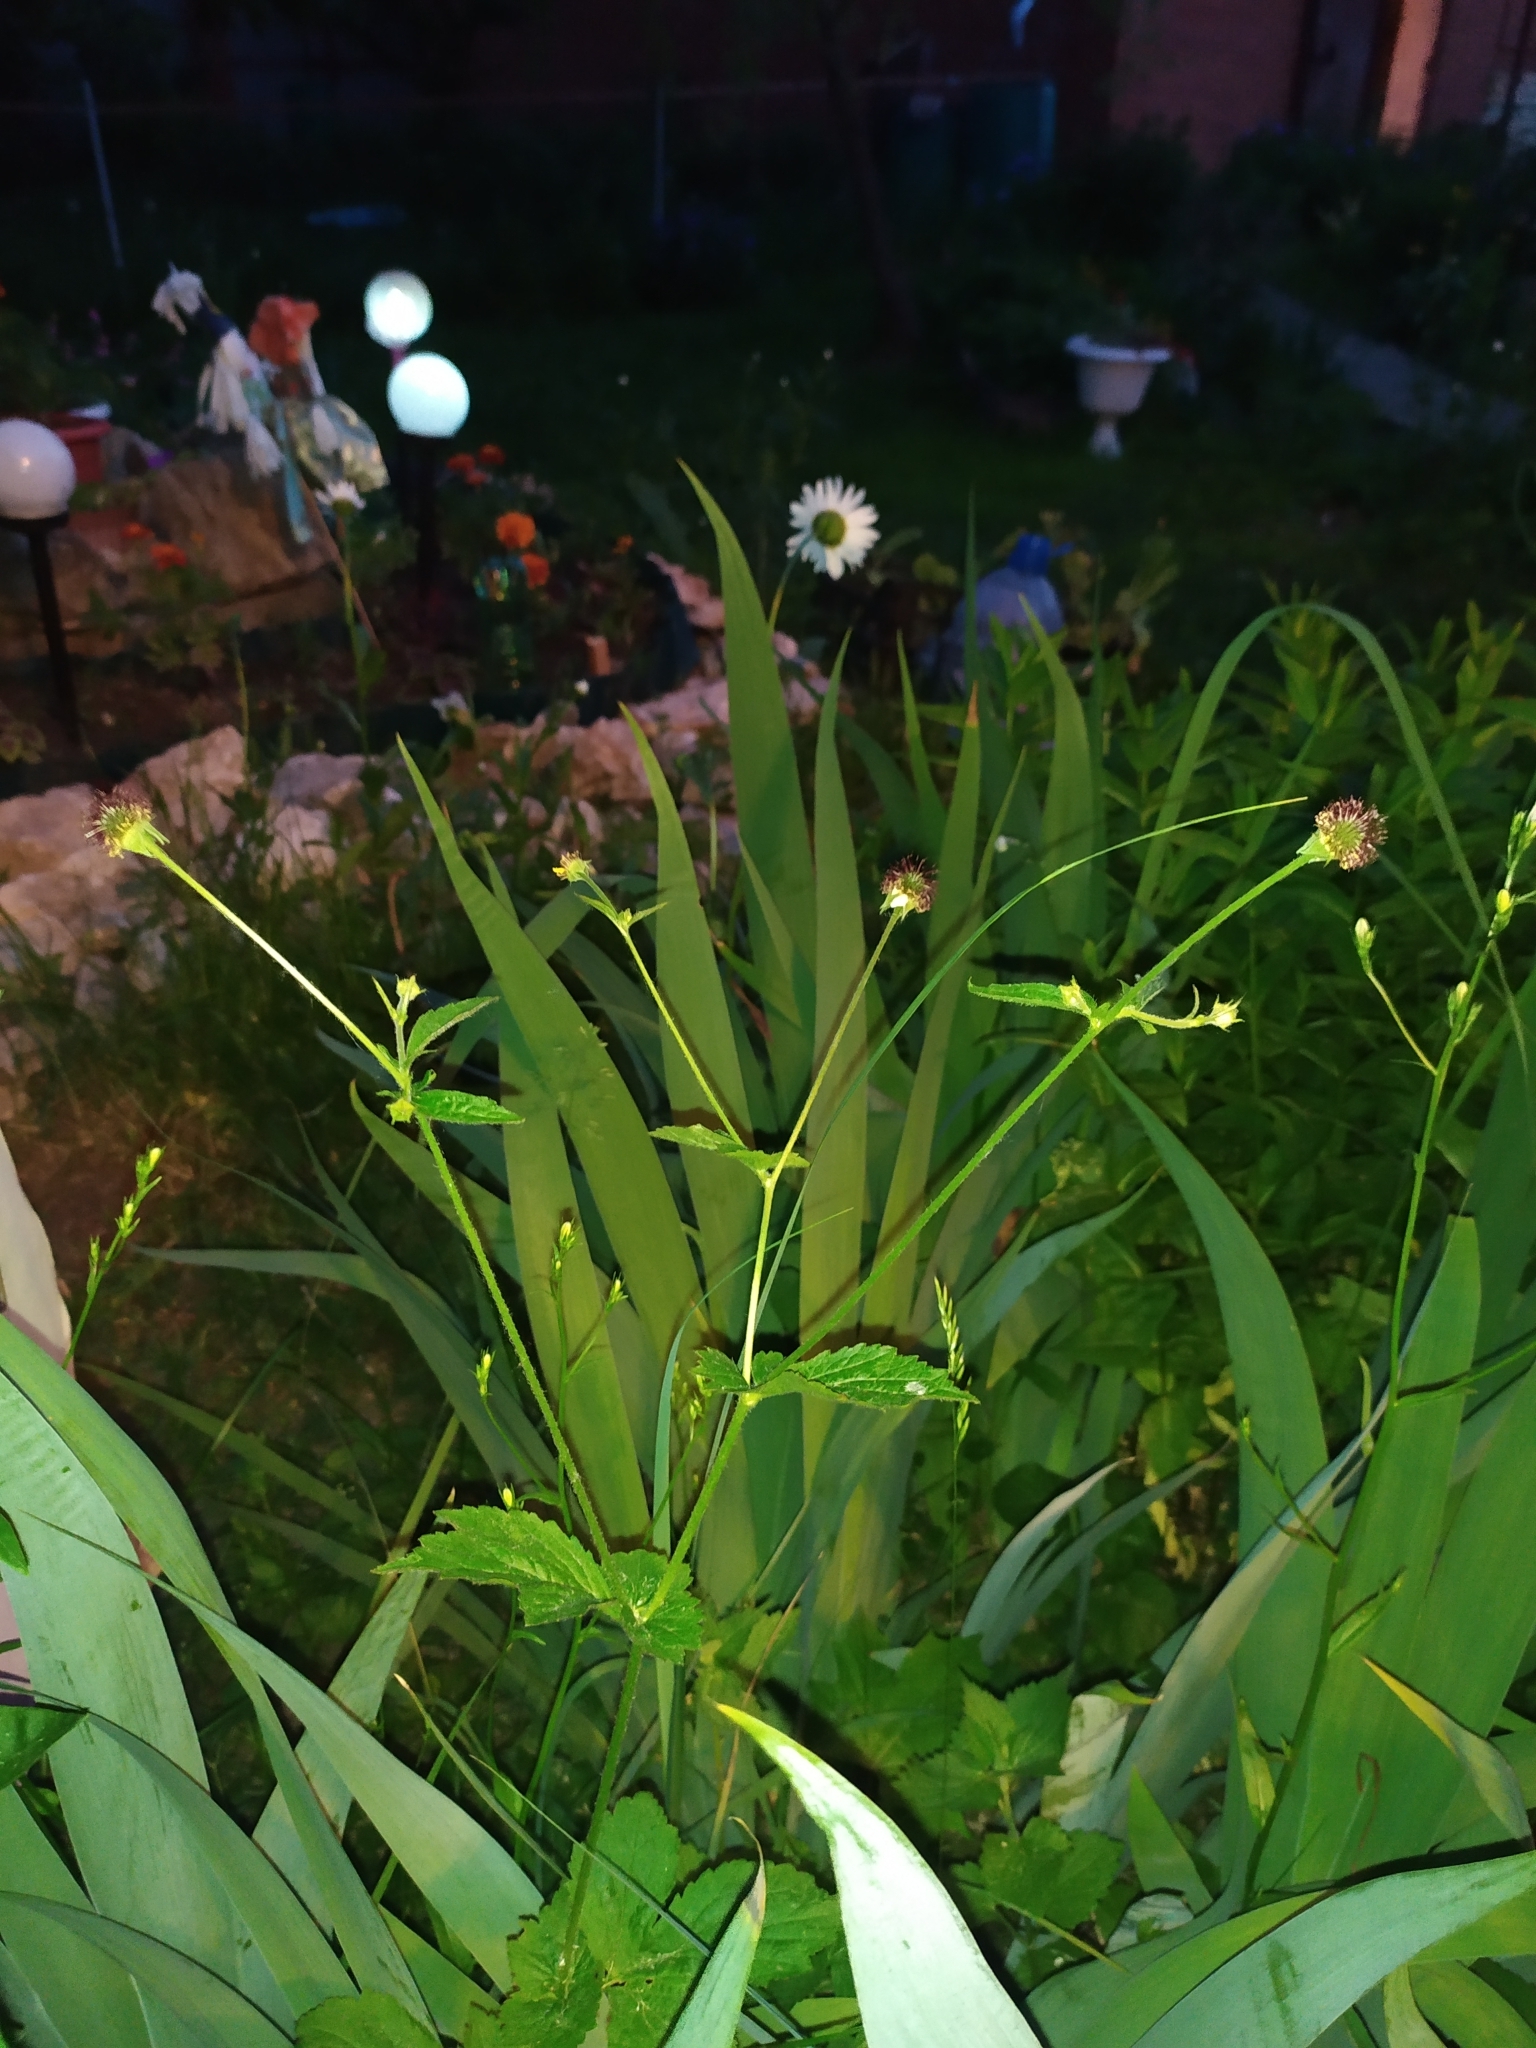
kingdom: Plantae
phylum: Tracheophyta
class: Magnoliopsida
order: Rosales
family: Rosaceae
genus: Geum
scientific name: Geum urbanum
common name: Wood avens
